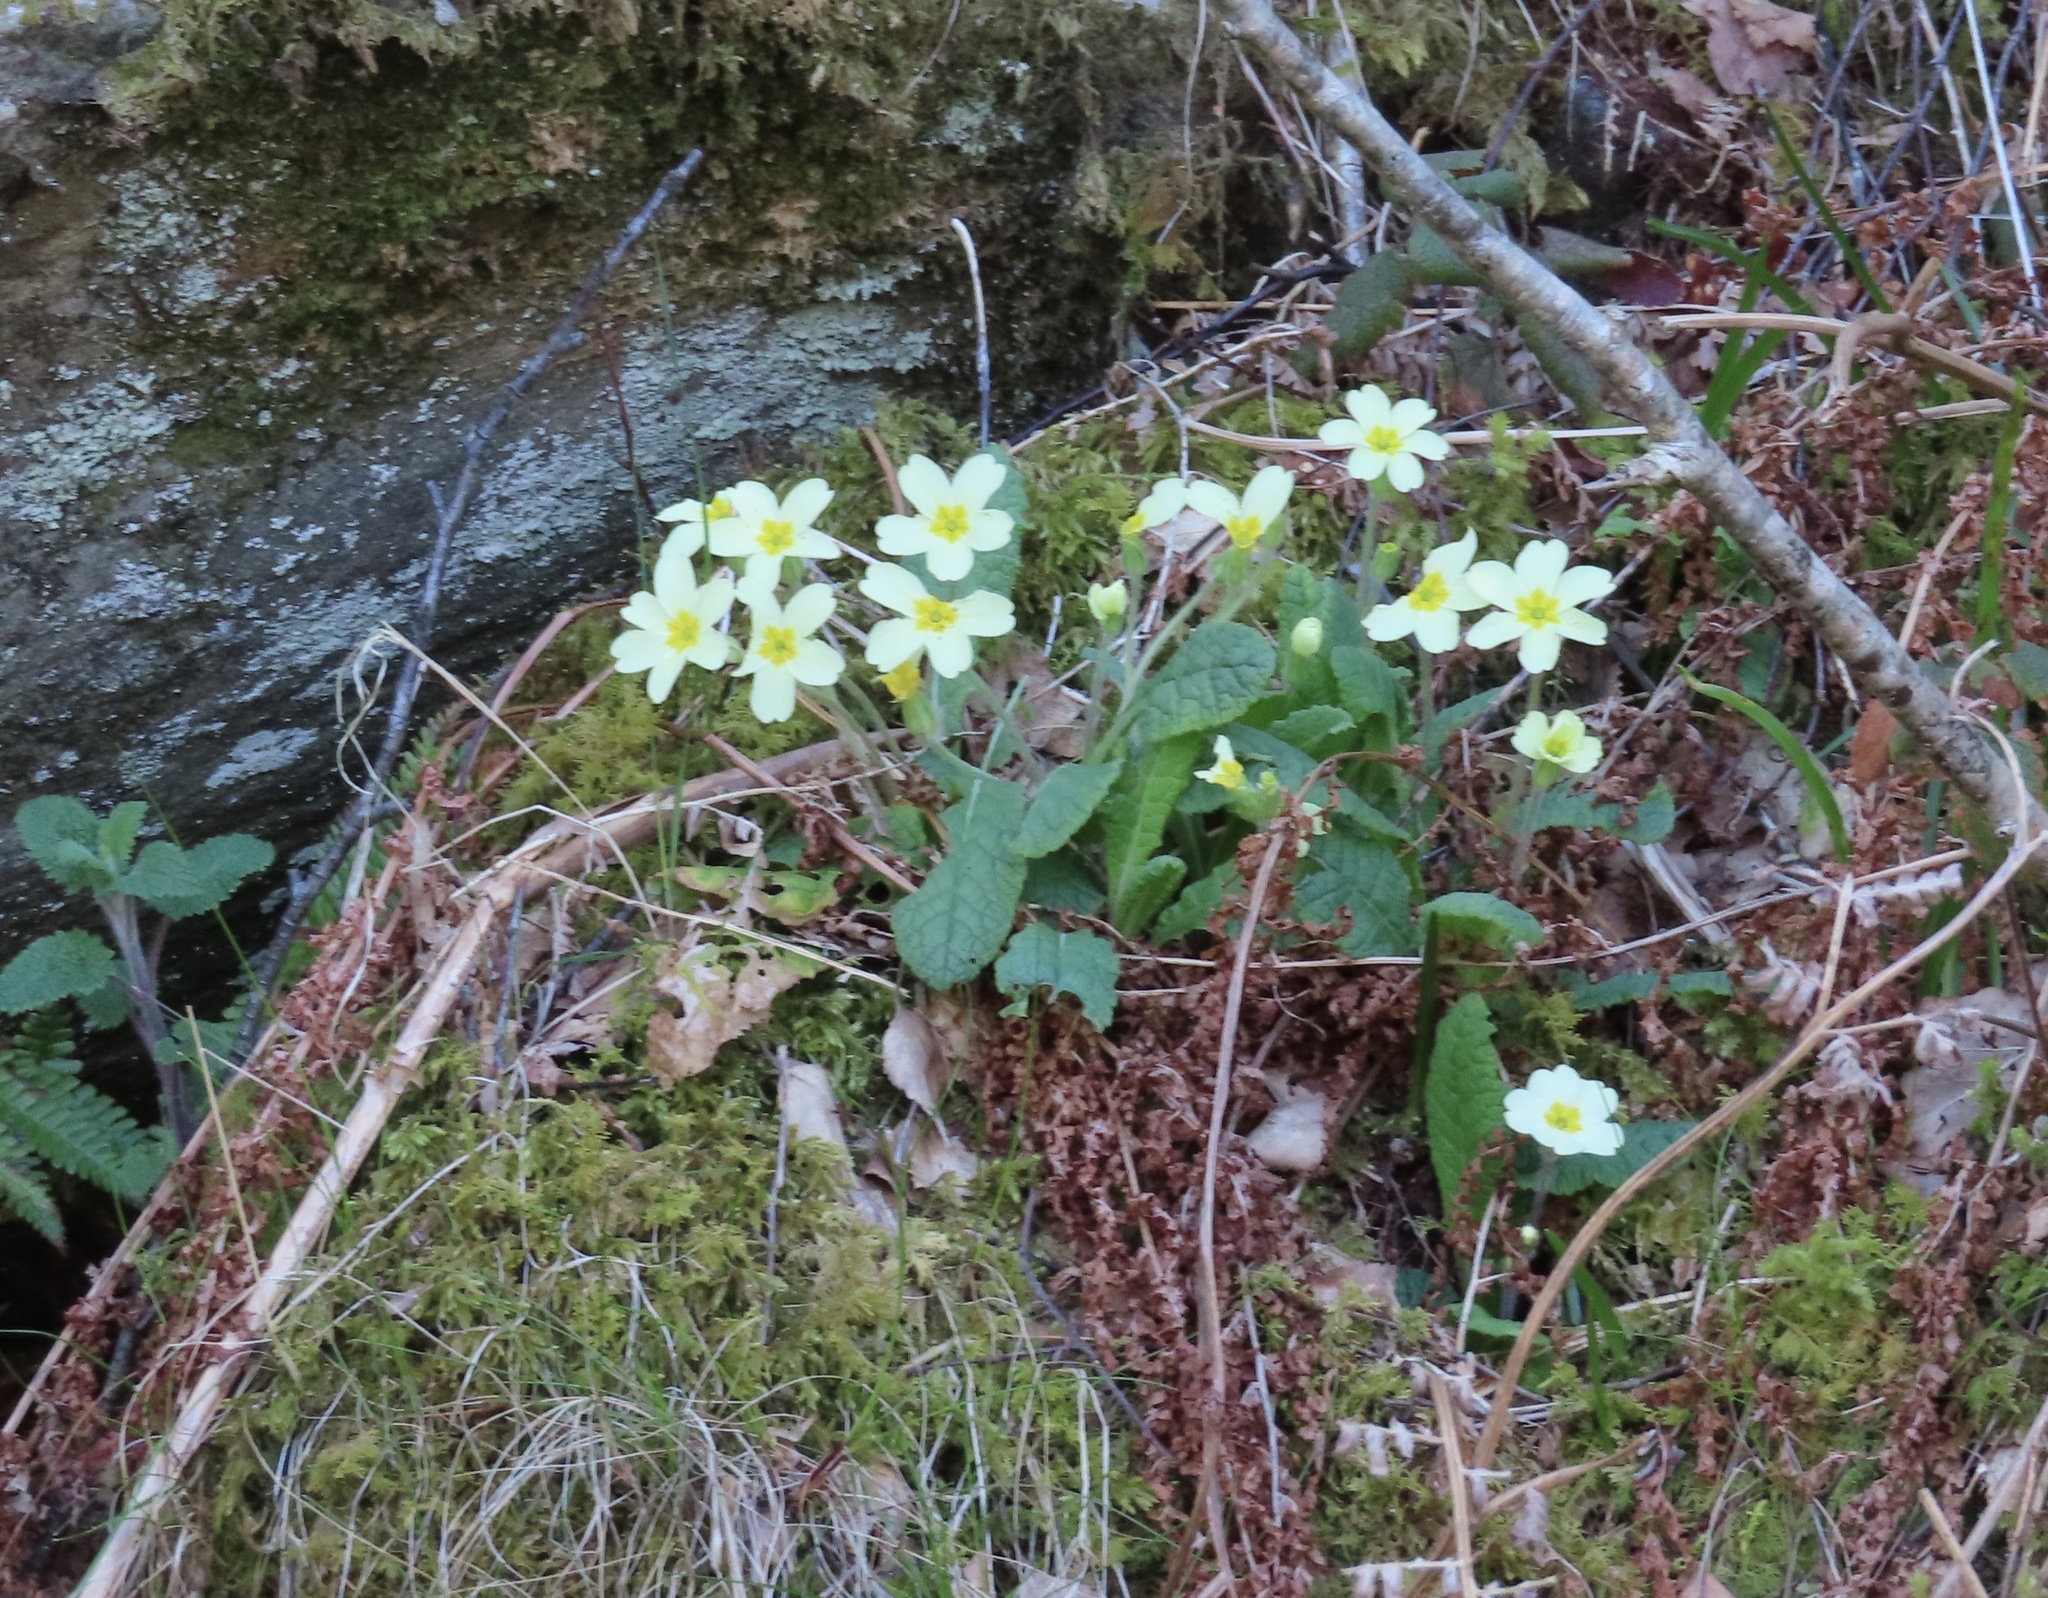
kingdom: Plantae
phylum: Tracheophyta
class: Magnoliopsida
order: Ericales
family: Primulaceae
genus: Primula
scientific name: Primula vulgaris
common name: Primrose
